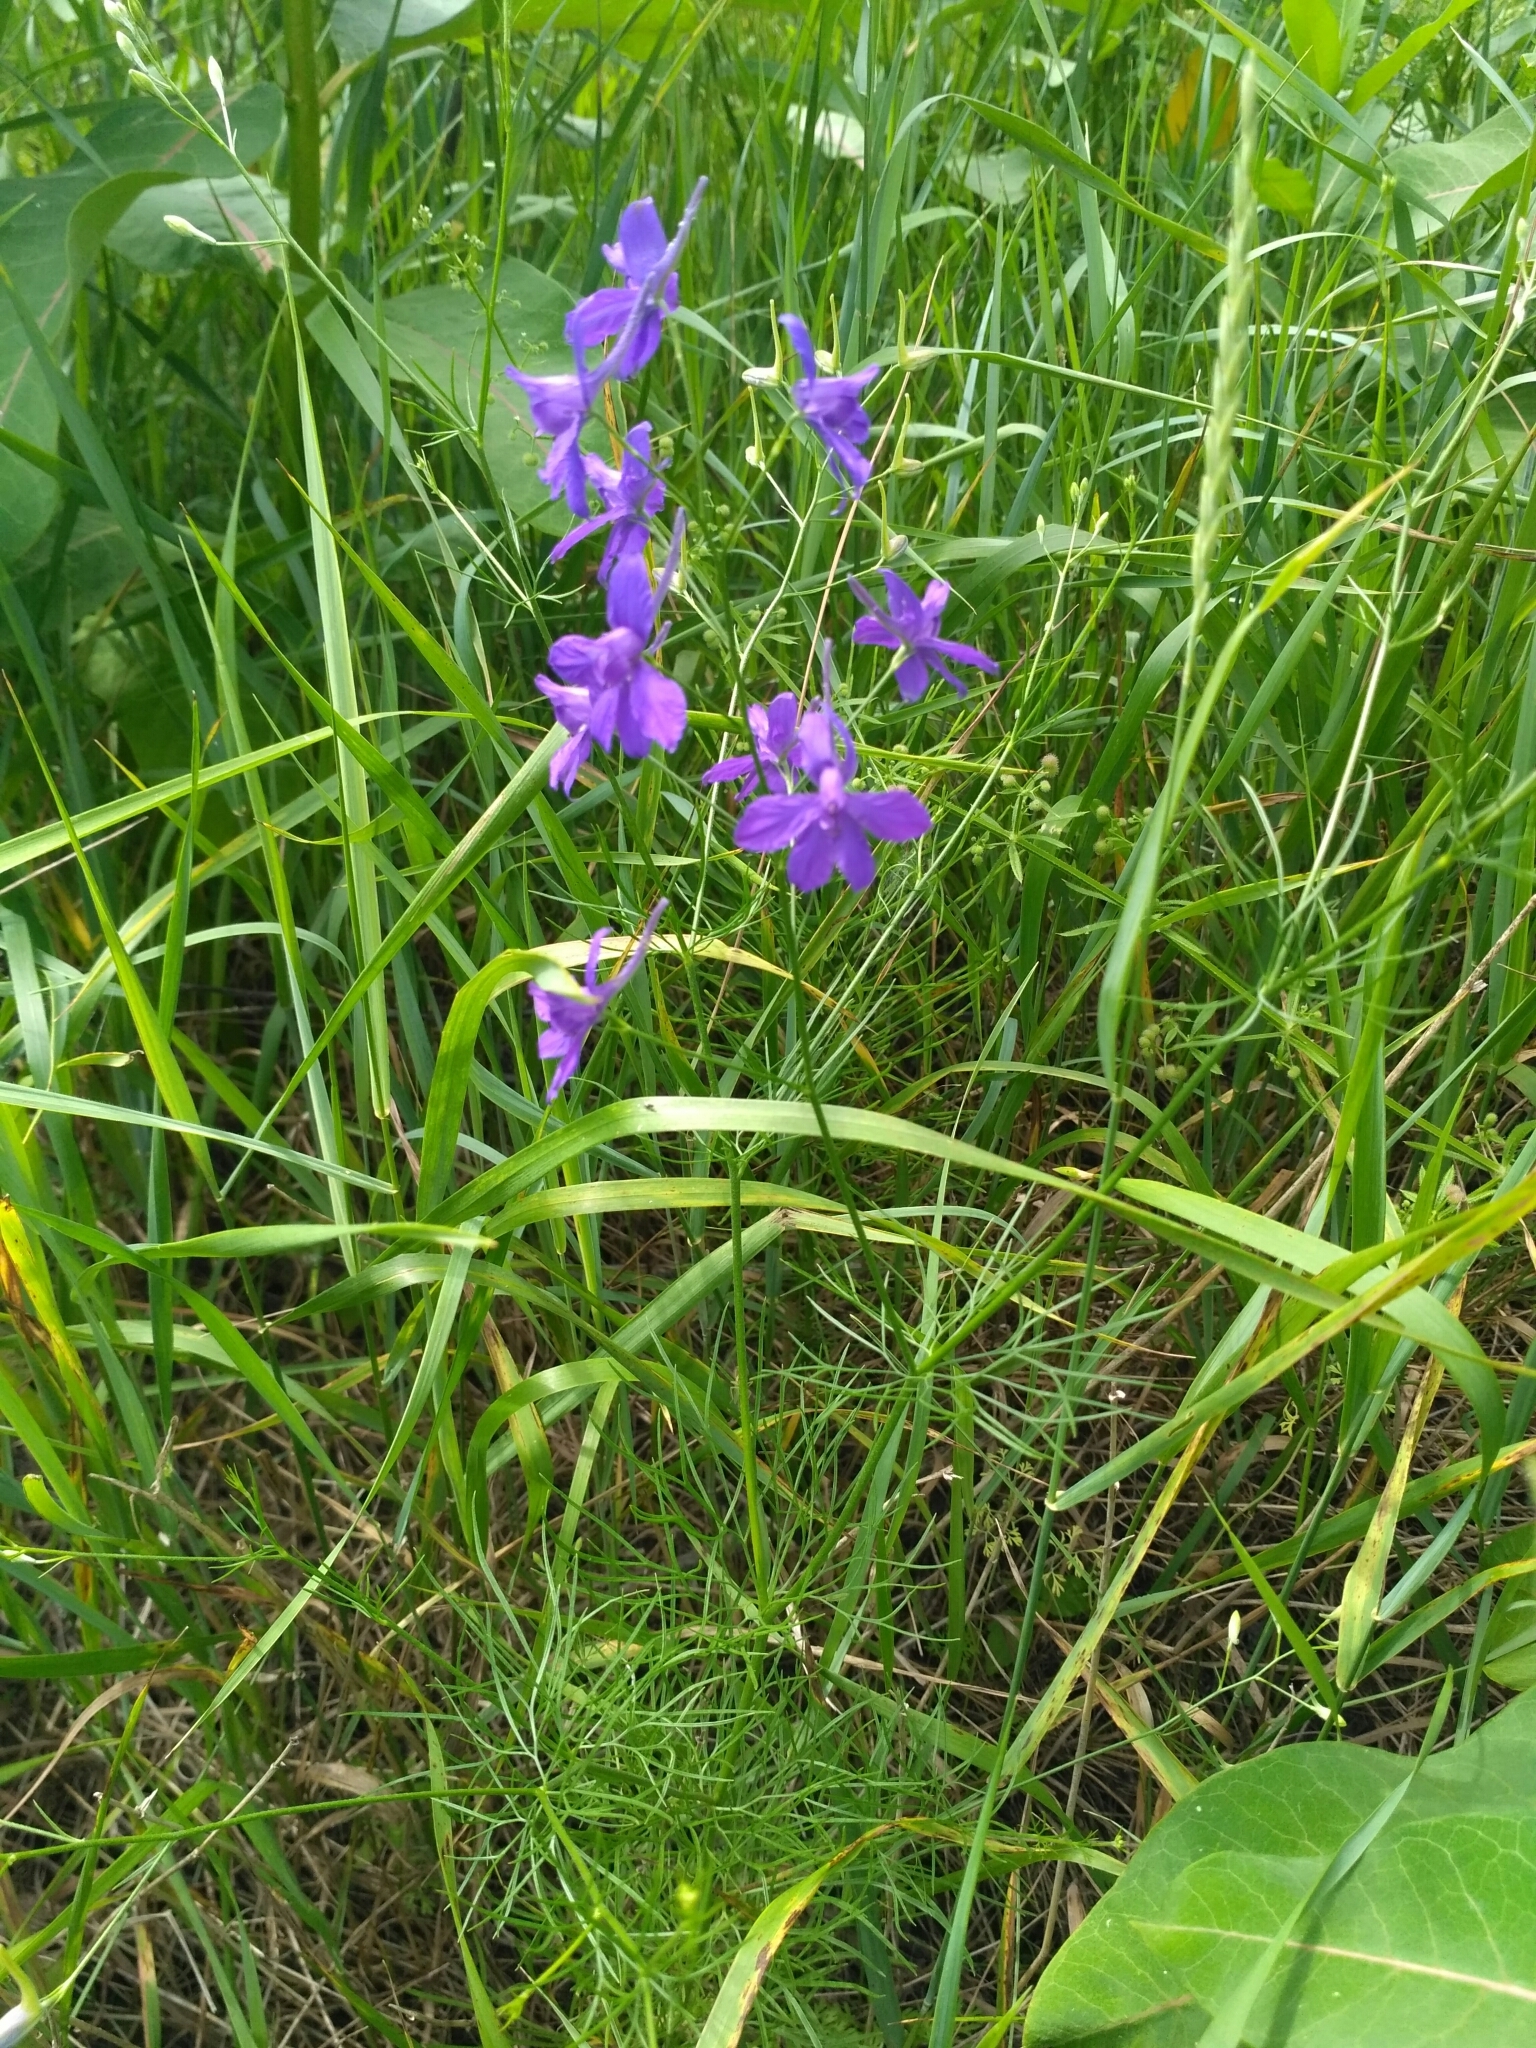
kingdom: Plantae
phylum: Tracheophyta
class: Magnoliopsida
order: Ranunculales
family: Ranunculaceae
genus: Delphinium
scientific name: Delphinium consolida
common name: Branching larkspur
